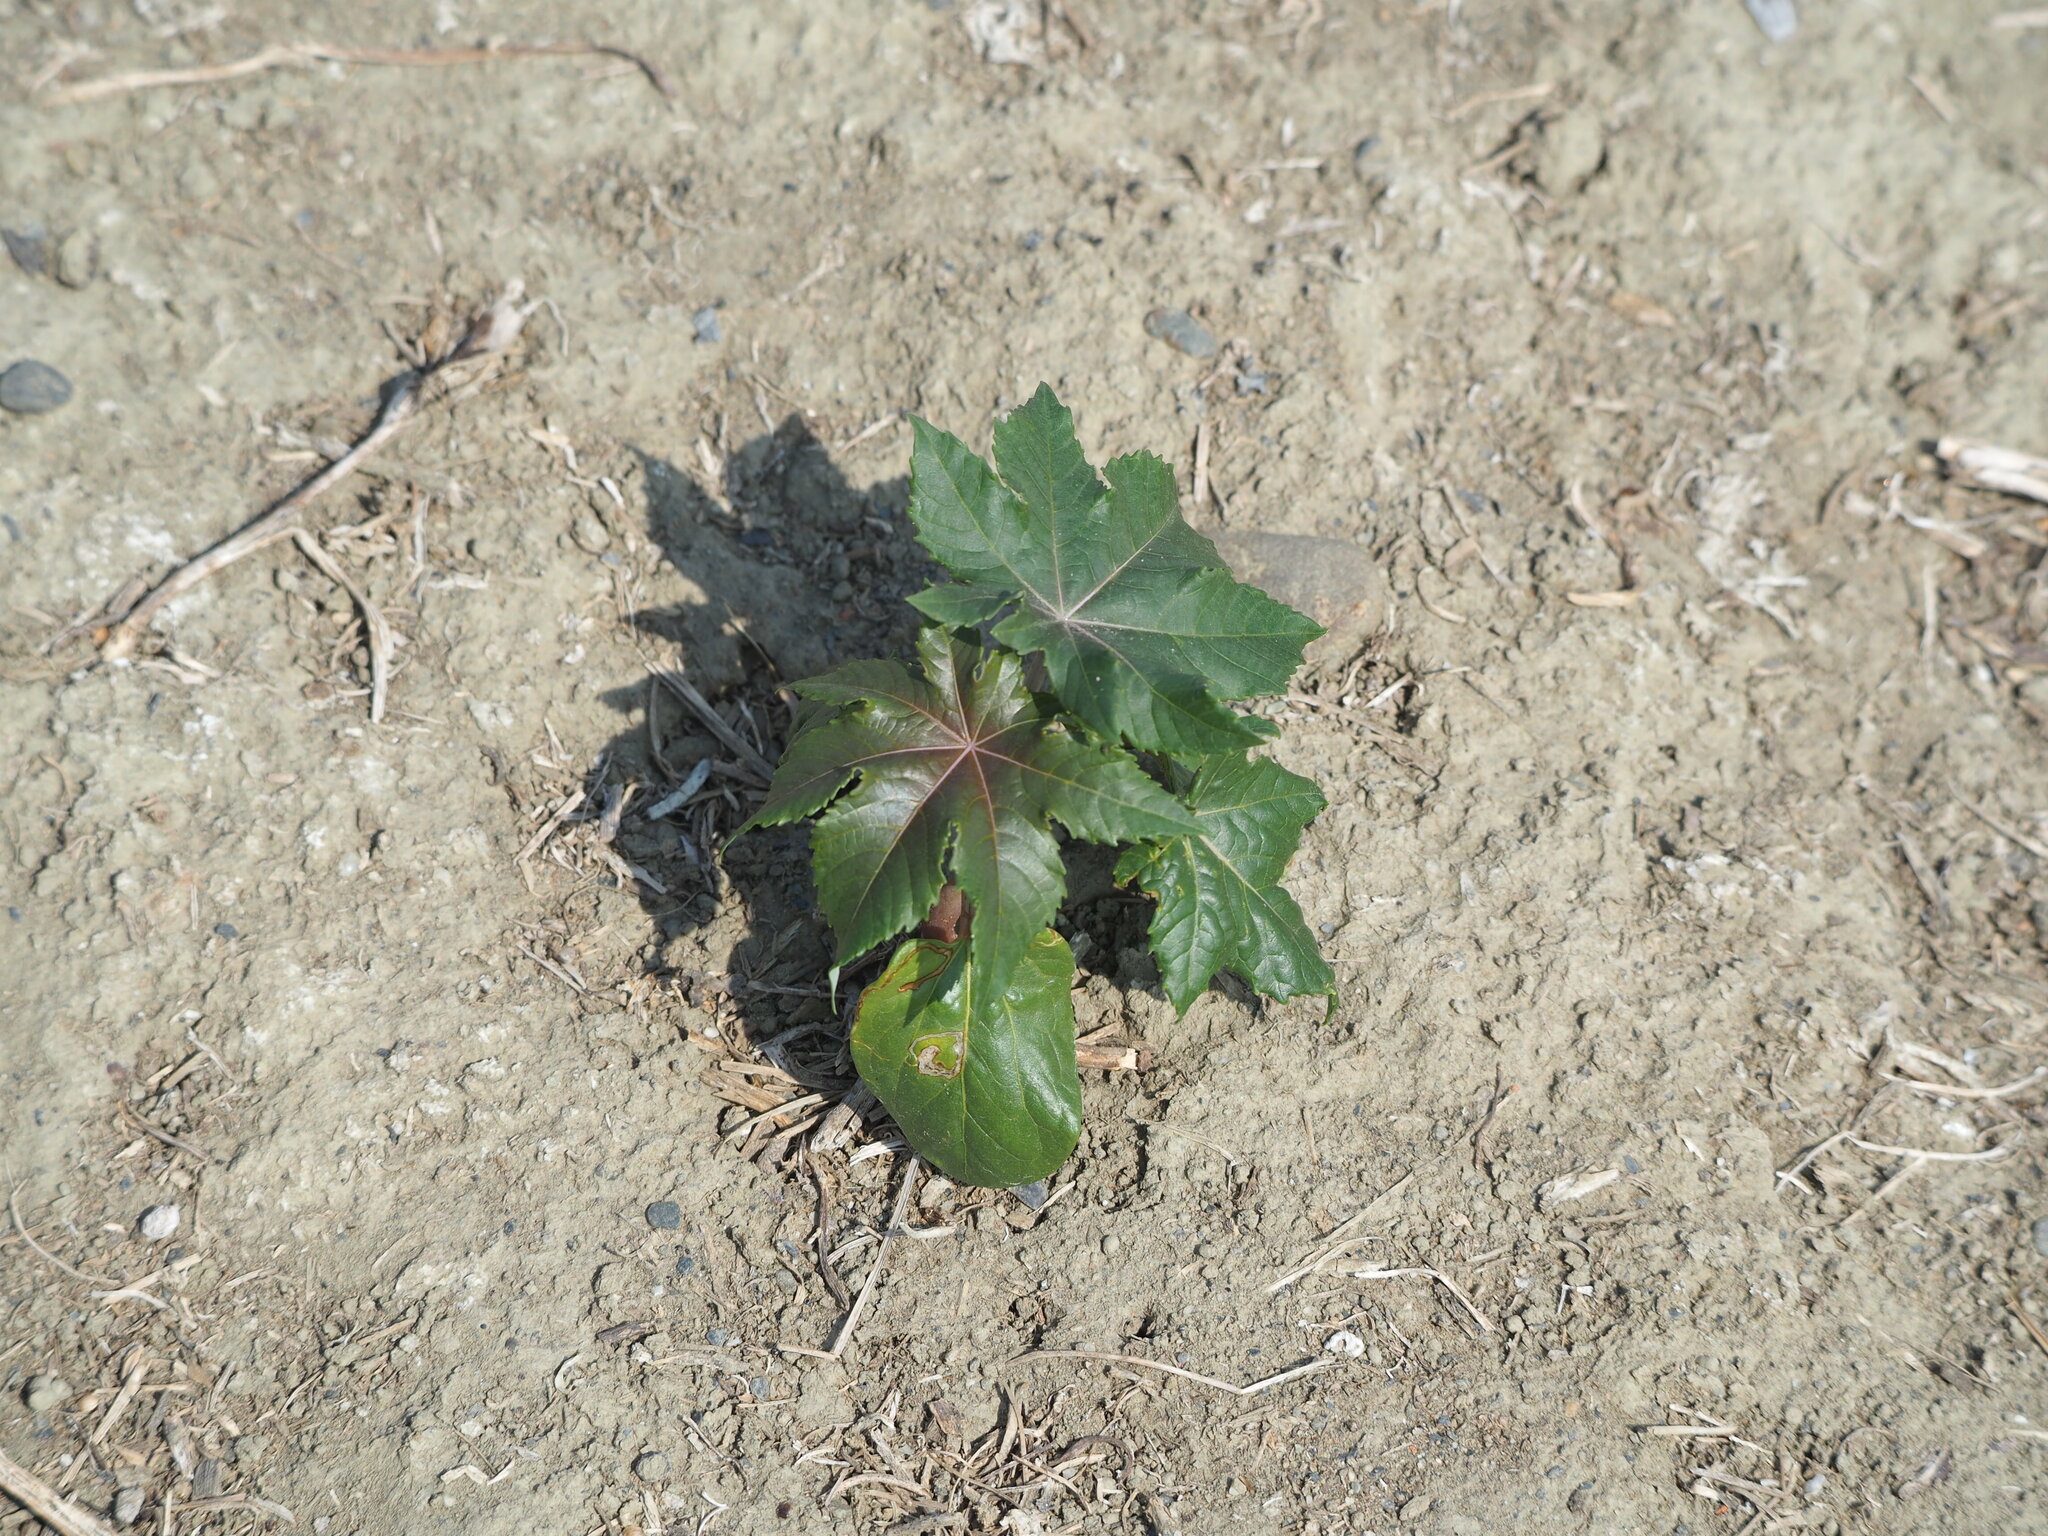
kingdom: Plantae
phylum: Tracheophyta
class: Magnoliopsida
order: Malpighiales
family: Euphorbiaceae
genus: Ricinus
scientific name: Ricinus communis
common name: Castor-oil-plant
